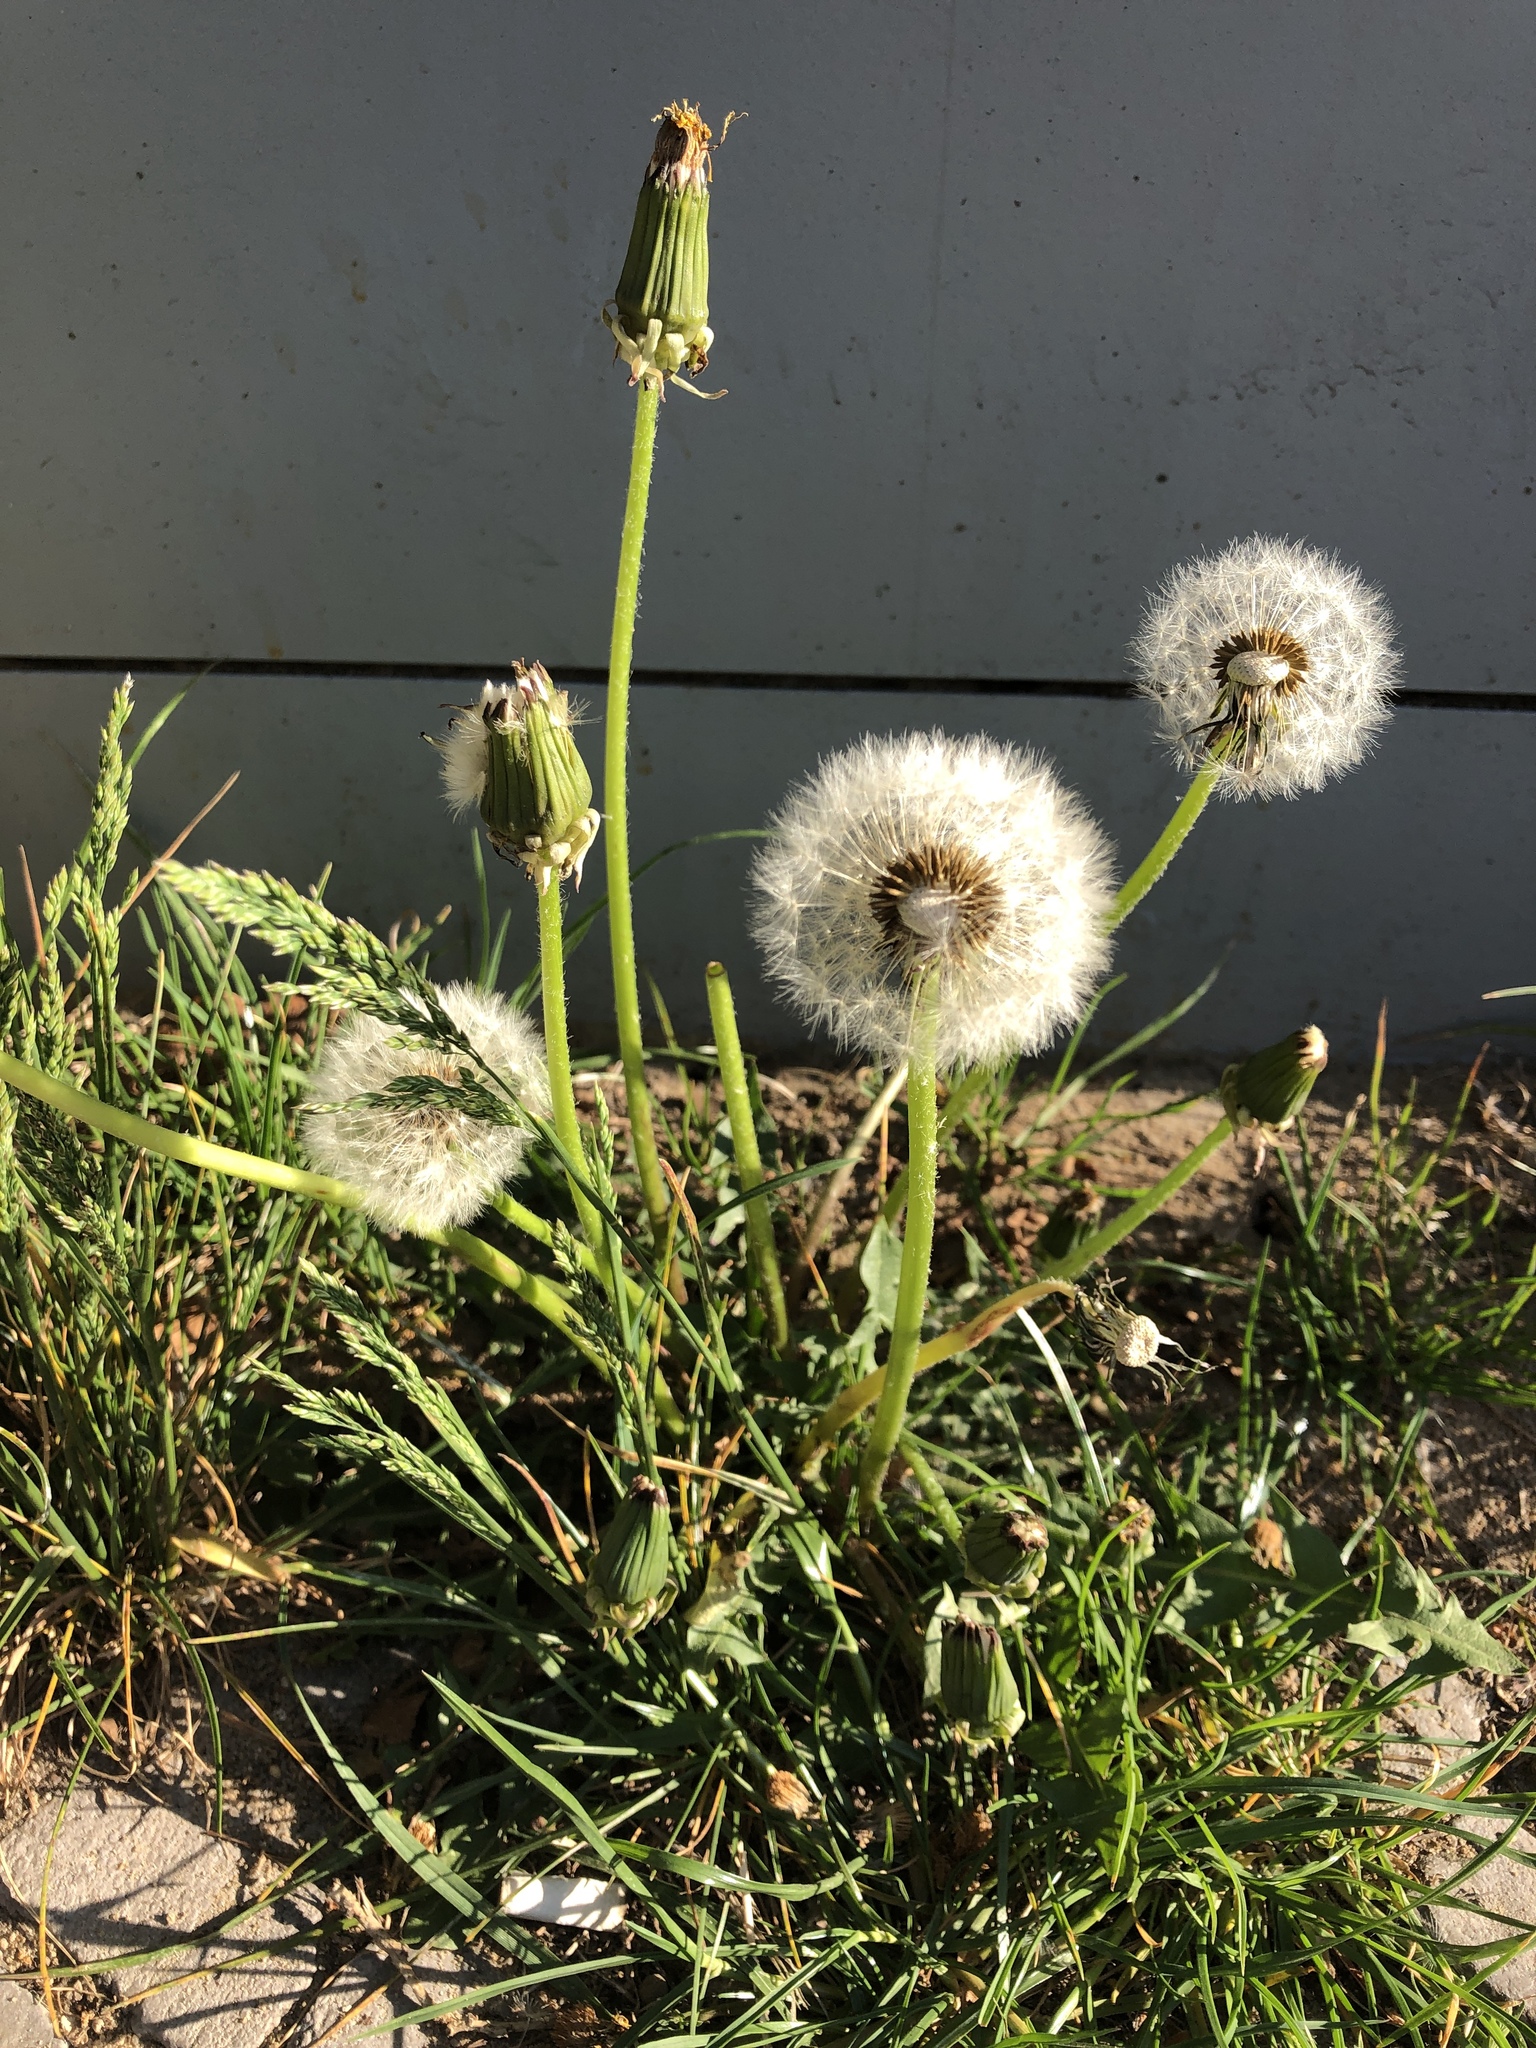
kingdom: Plantae
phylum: Tracheophyta
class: Magnoliopsida
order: Asterales
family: Asteraceae
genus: Taraxacum
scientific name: Taraxacum officinale
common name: Common dandelion
